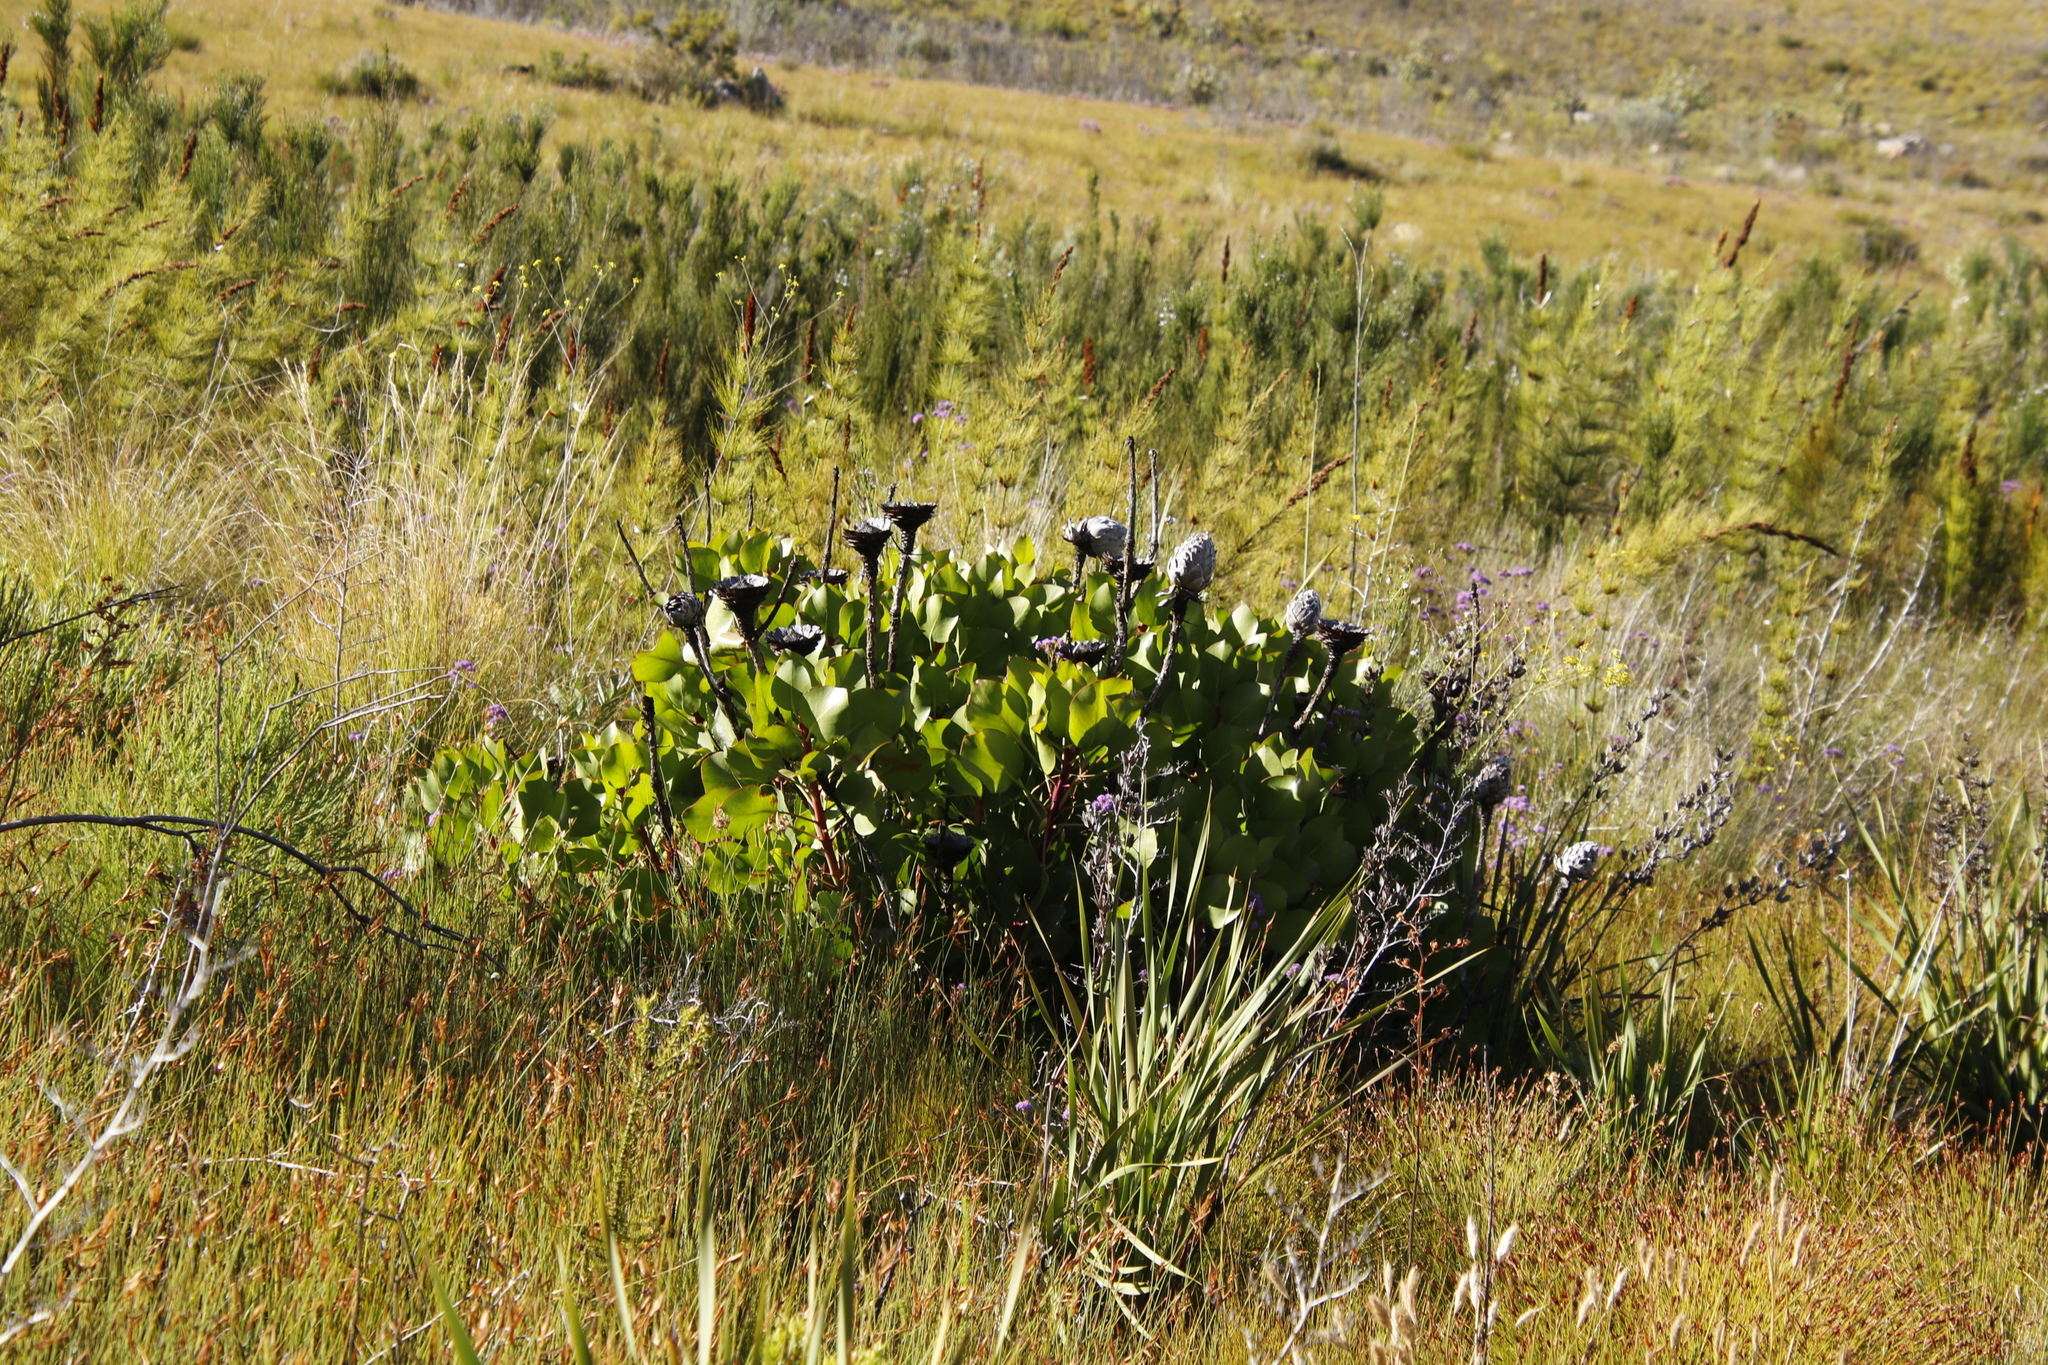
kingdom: Plantae
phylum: Tracheophyta
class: Magnoliopsida
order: Proteales
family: Proteaceae
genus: Protea
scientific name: Protea cynaroides
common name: King protea
